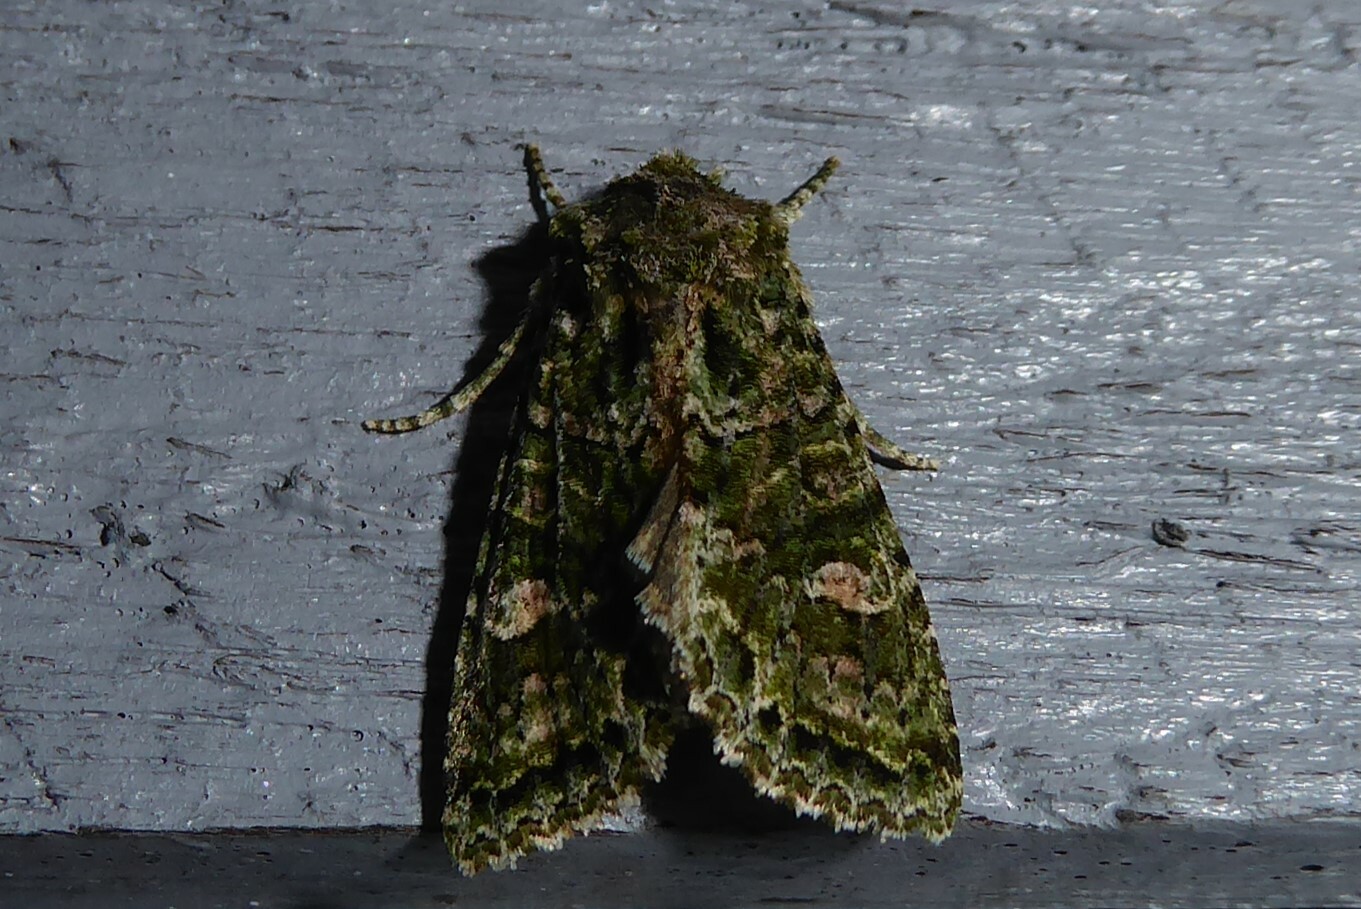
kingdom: Animalia
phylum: Arthropoda
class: Insecta
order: Lepidoptera
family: Noctuidae
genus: Ichneutica
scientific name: Ichneutica
